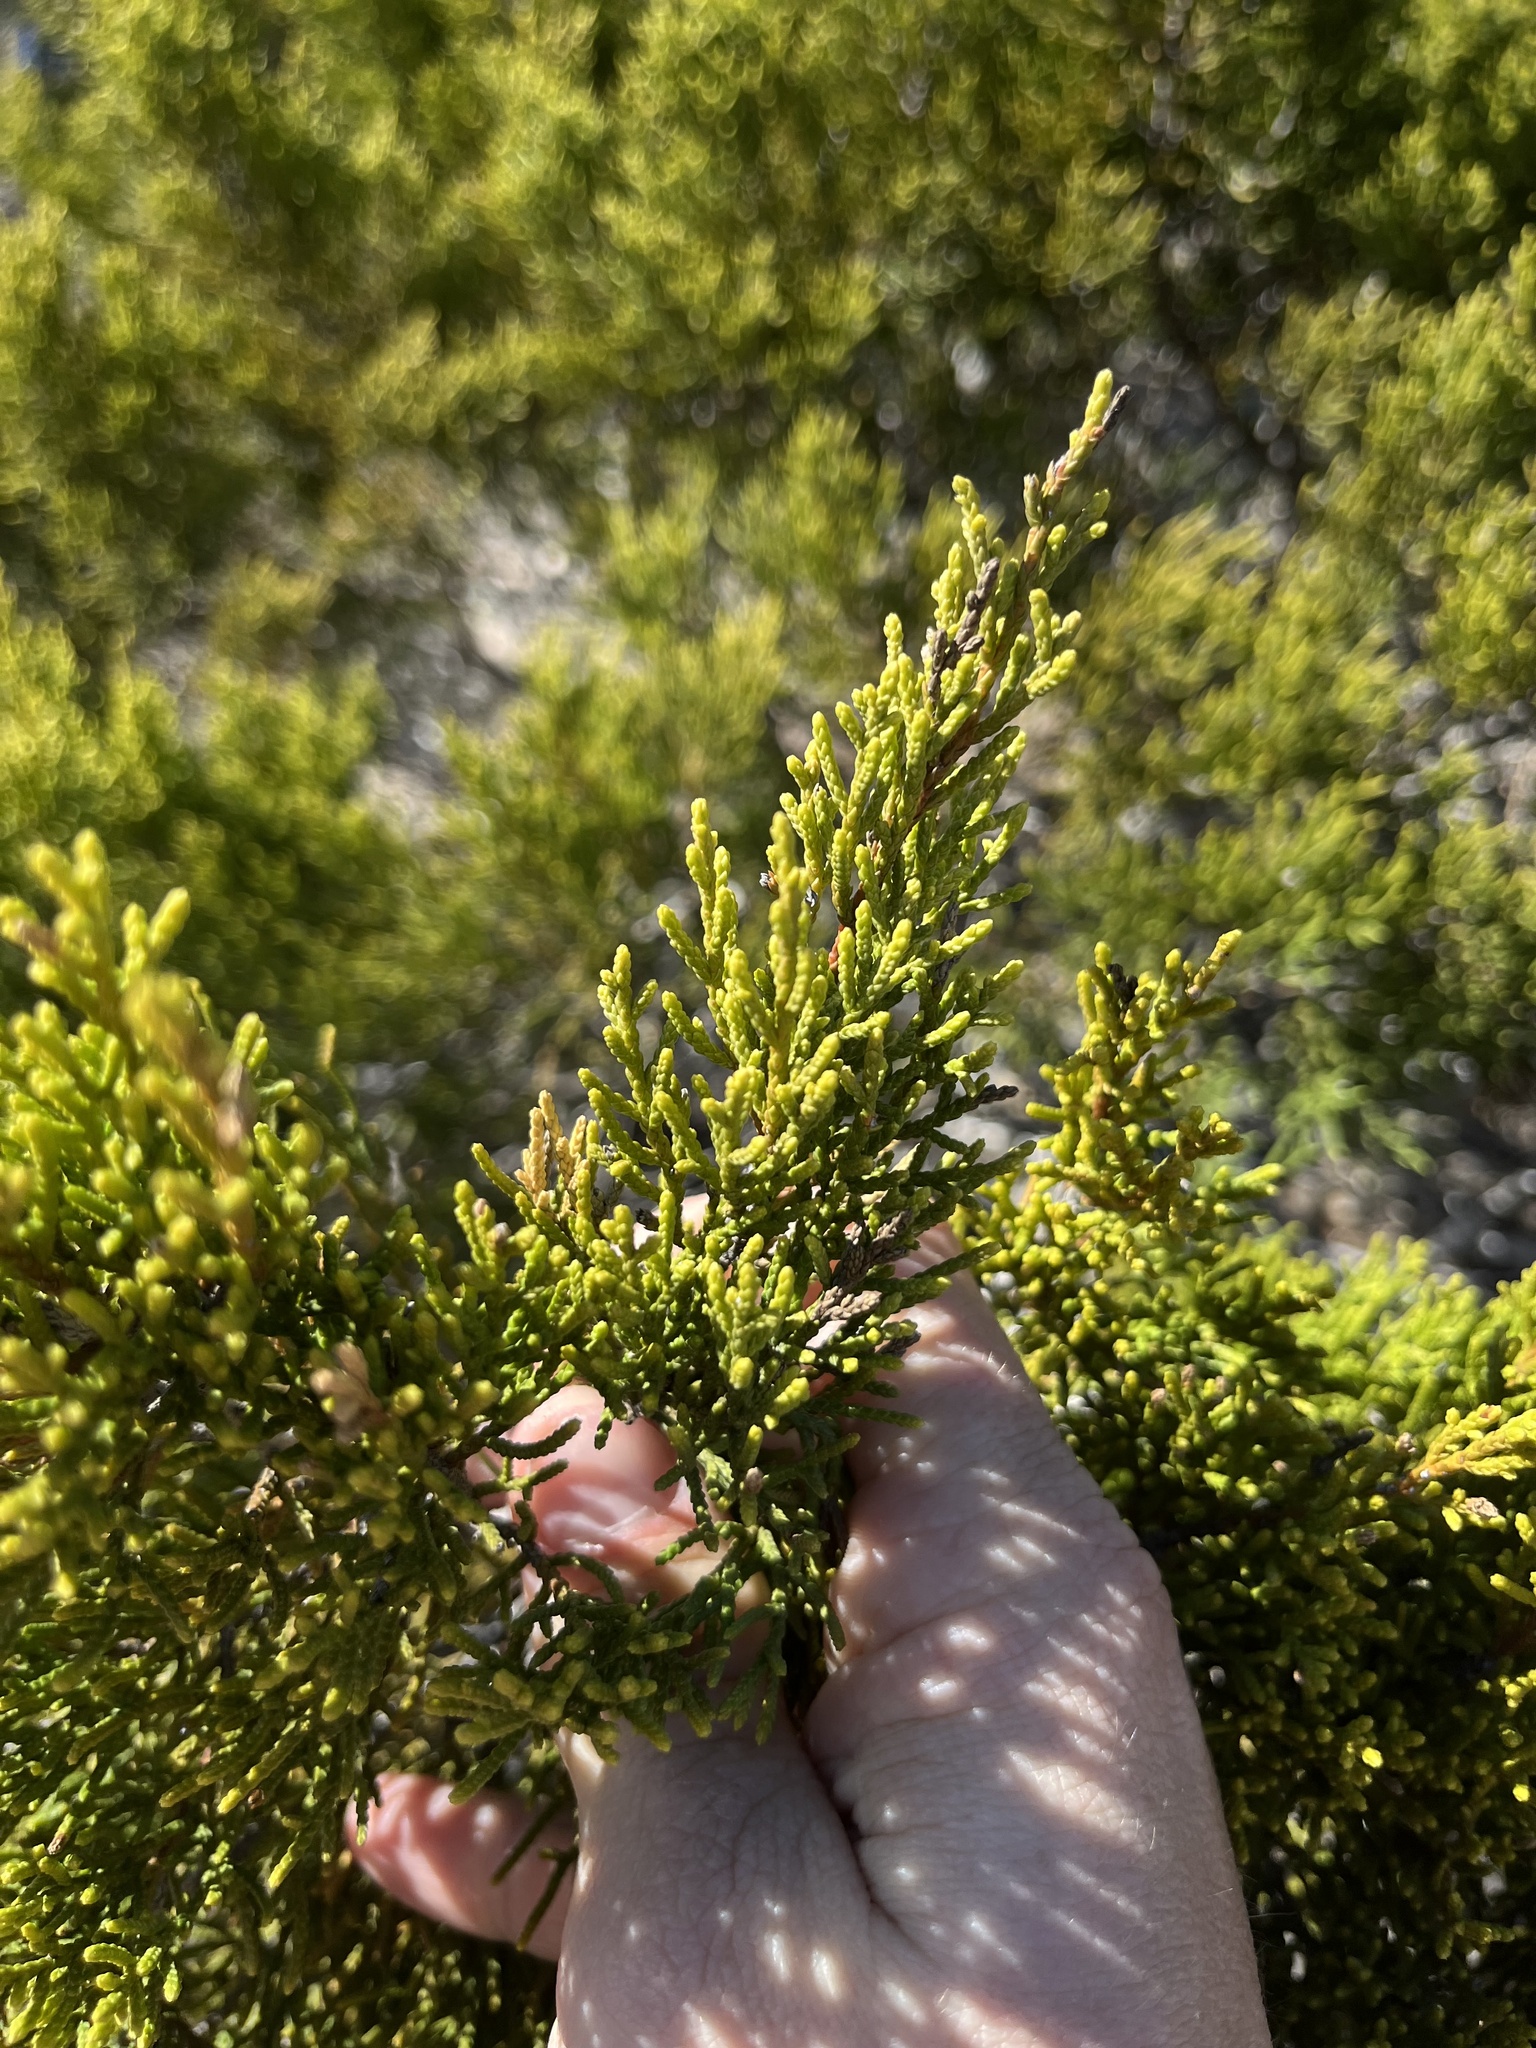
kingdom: Plantae
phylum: Tracheophyta
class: Pinopsida
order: Pinales
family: Cupressaceae
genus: Juniperus
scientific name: Juniperus ashei
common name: Mexican juniper
